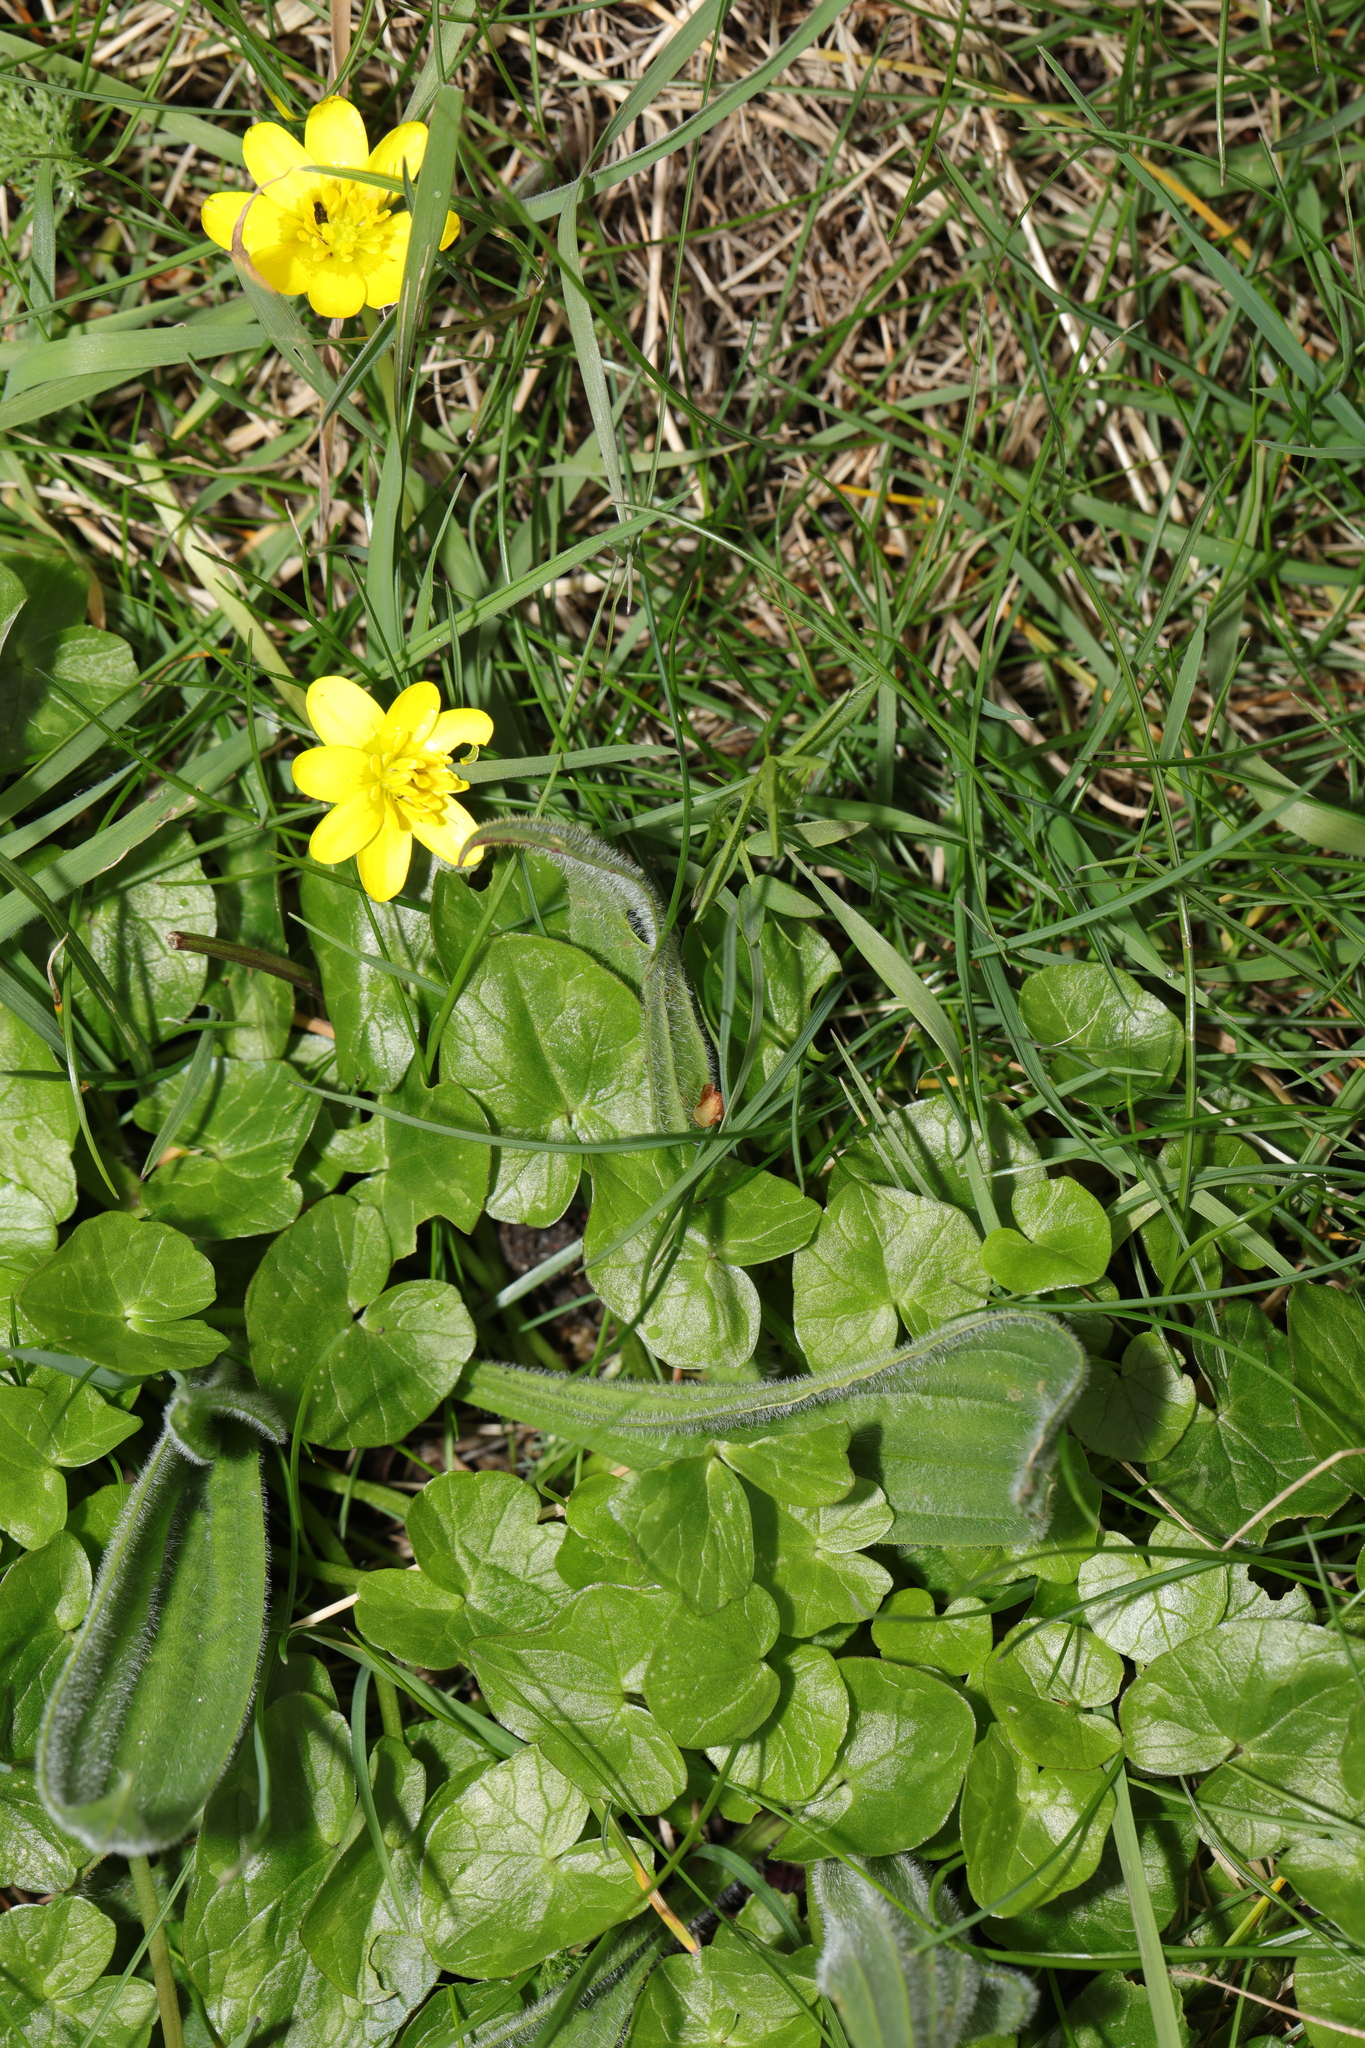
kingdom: Plantae
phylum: Tracheophyta
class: Magnoliopsida
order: Ranunculales
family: Ranunculaceae
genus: Ficaria
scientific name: Ficaria verna
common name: Lesser celandine
